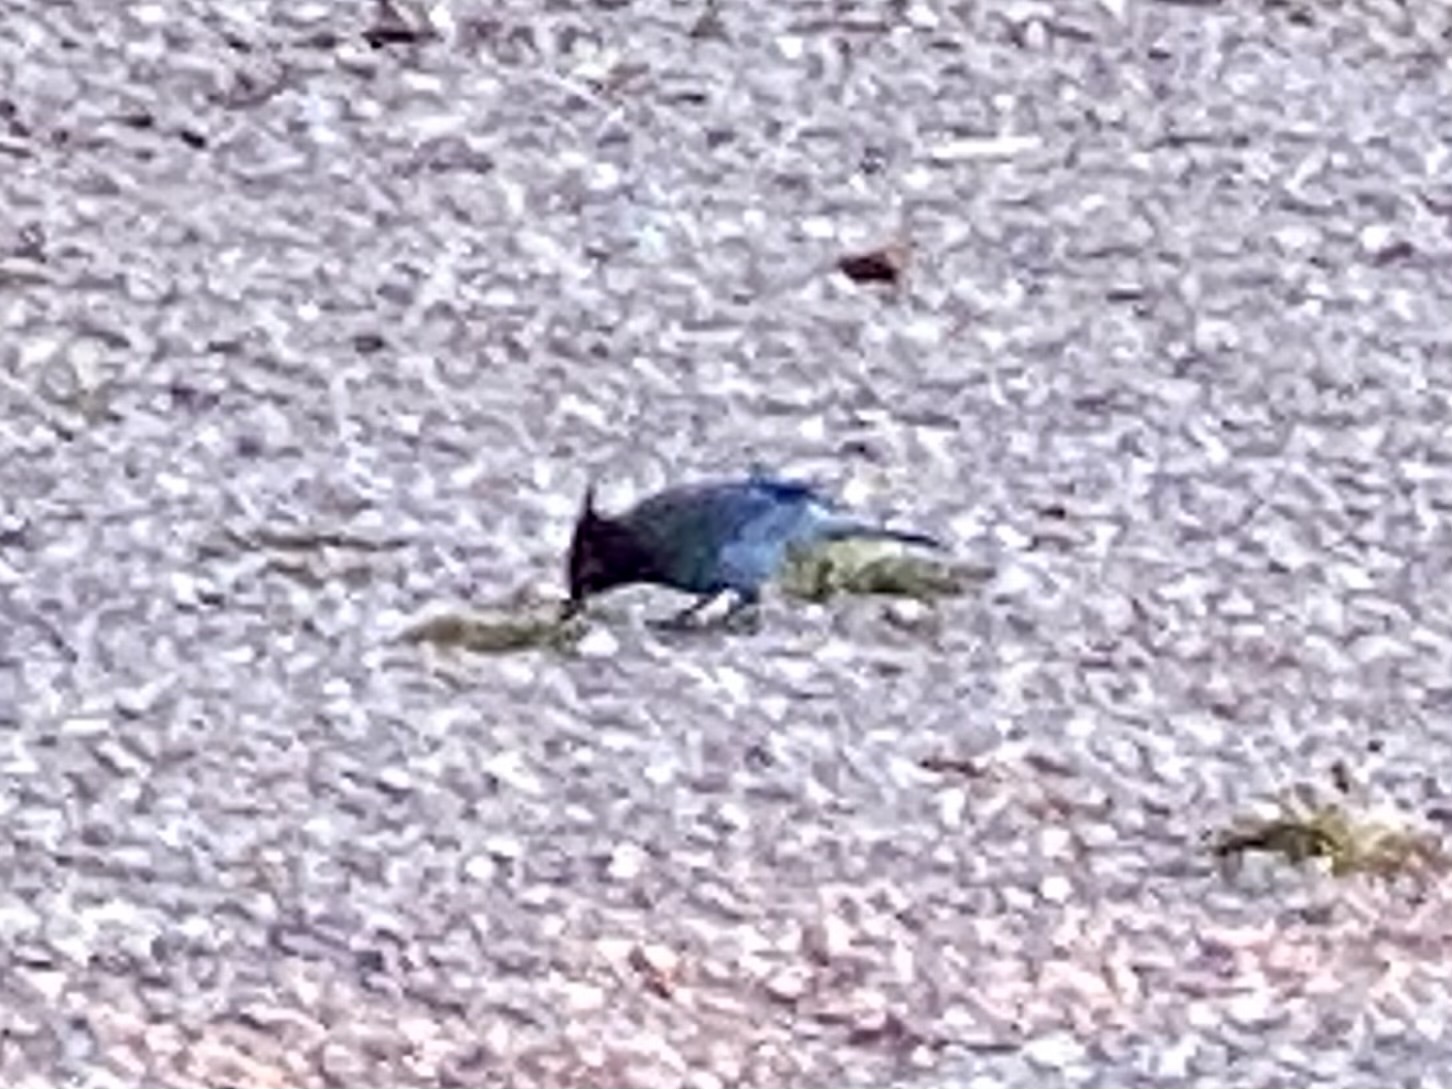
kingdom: Animalia
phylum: Chordata
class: Aves
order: Passeriformes
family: Corvidae
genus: Cyanocitta
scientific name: Cyanocitta stelleri
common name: Steller's jay
